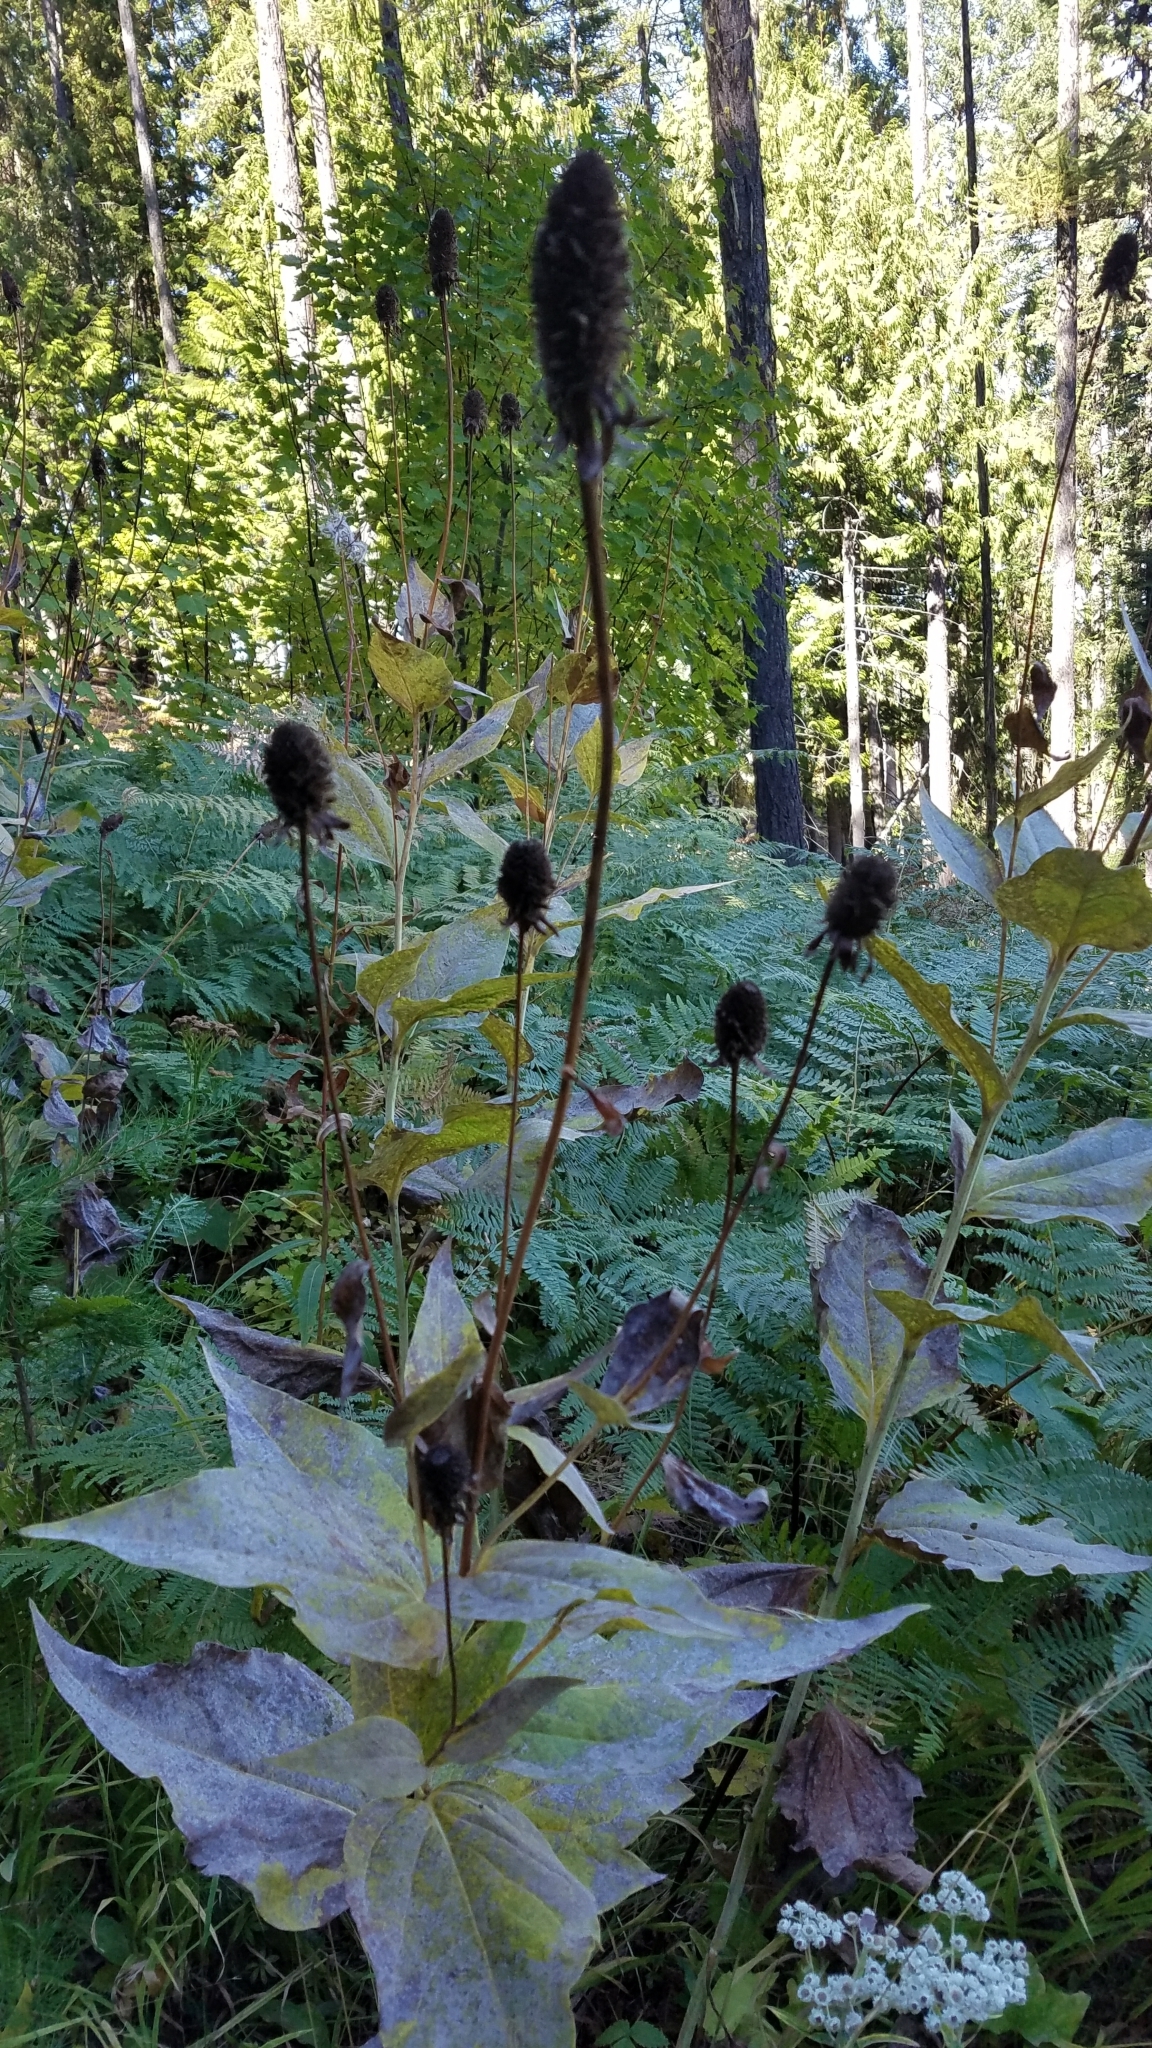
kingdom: Plantae
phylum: Tracheophyta
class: Magnoliopsida
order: Asterales
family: Asteraceae
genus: Rudbeckia
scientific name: Rudbeckia occidentalis
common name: Western coneflower
